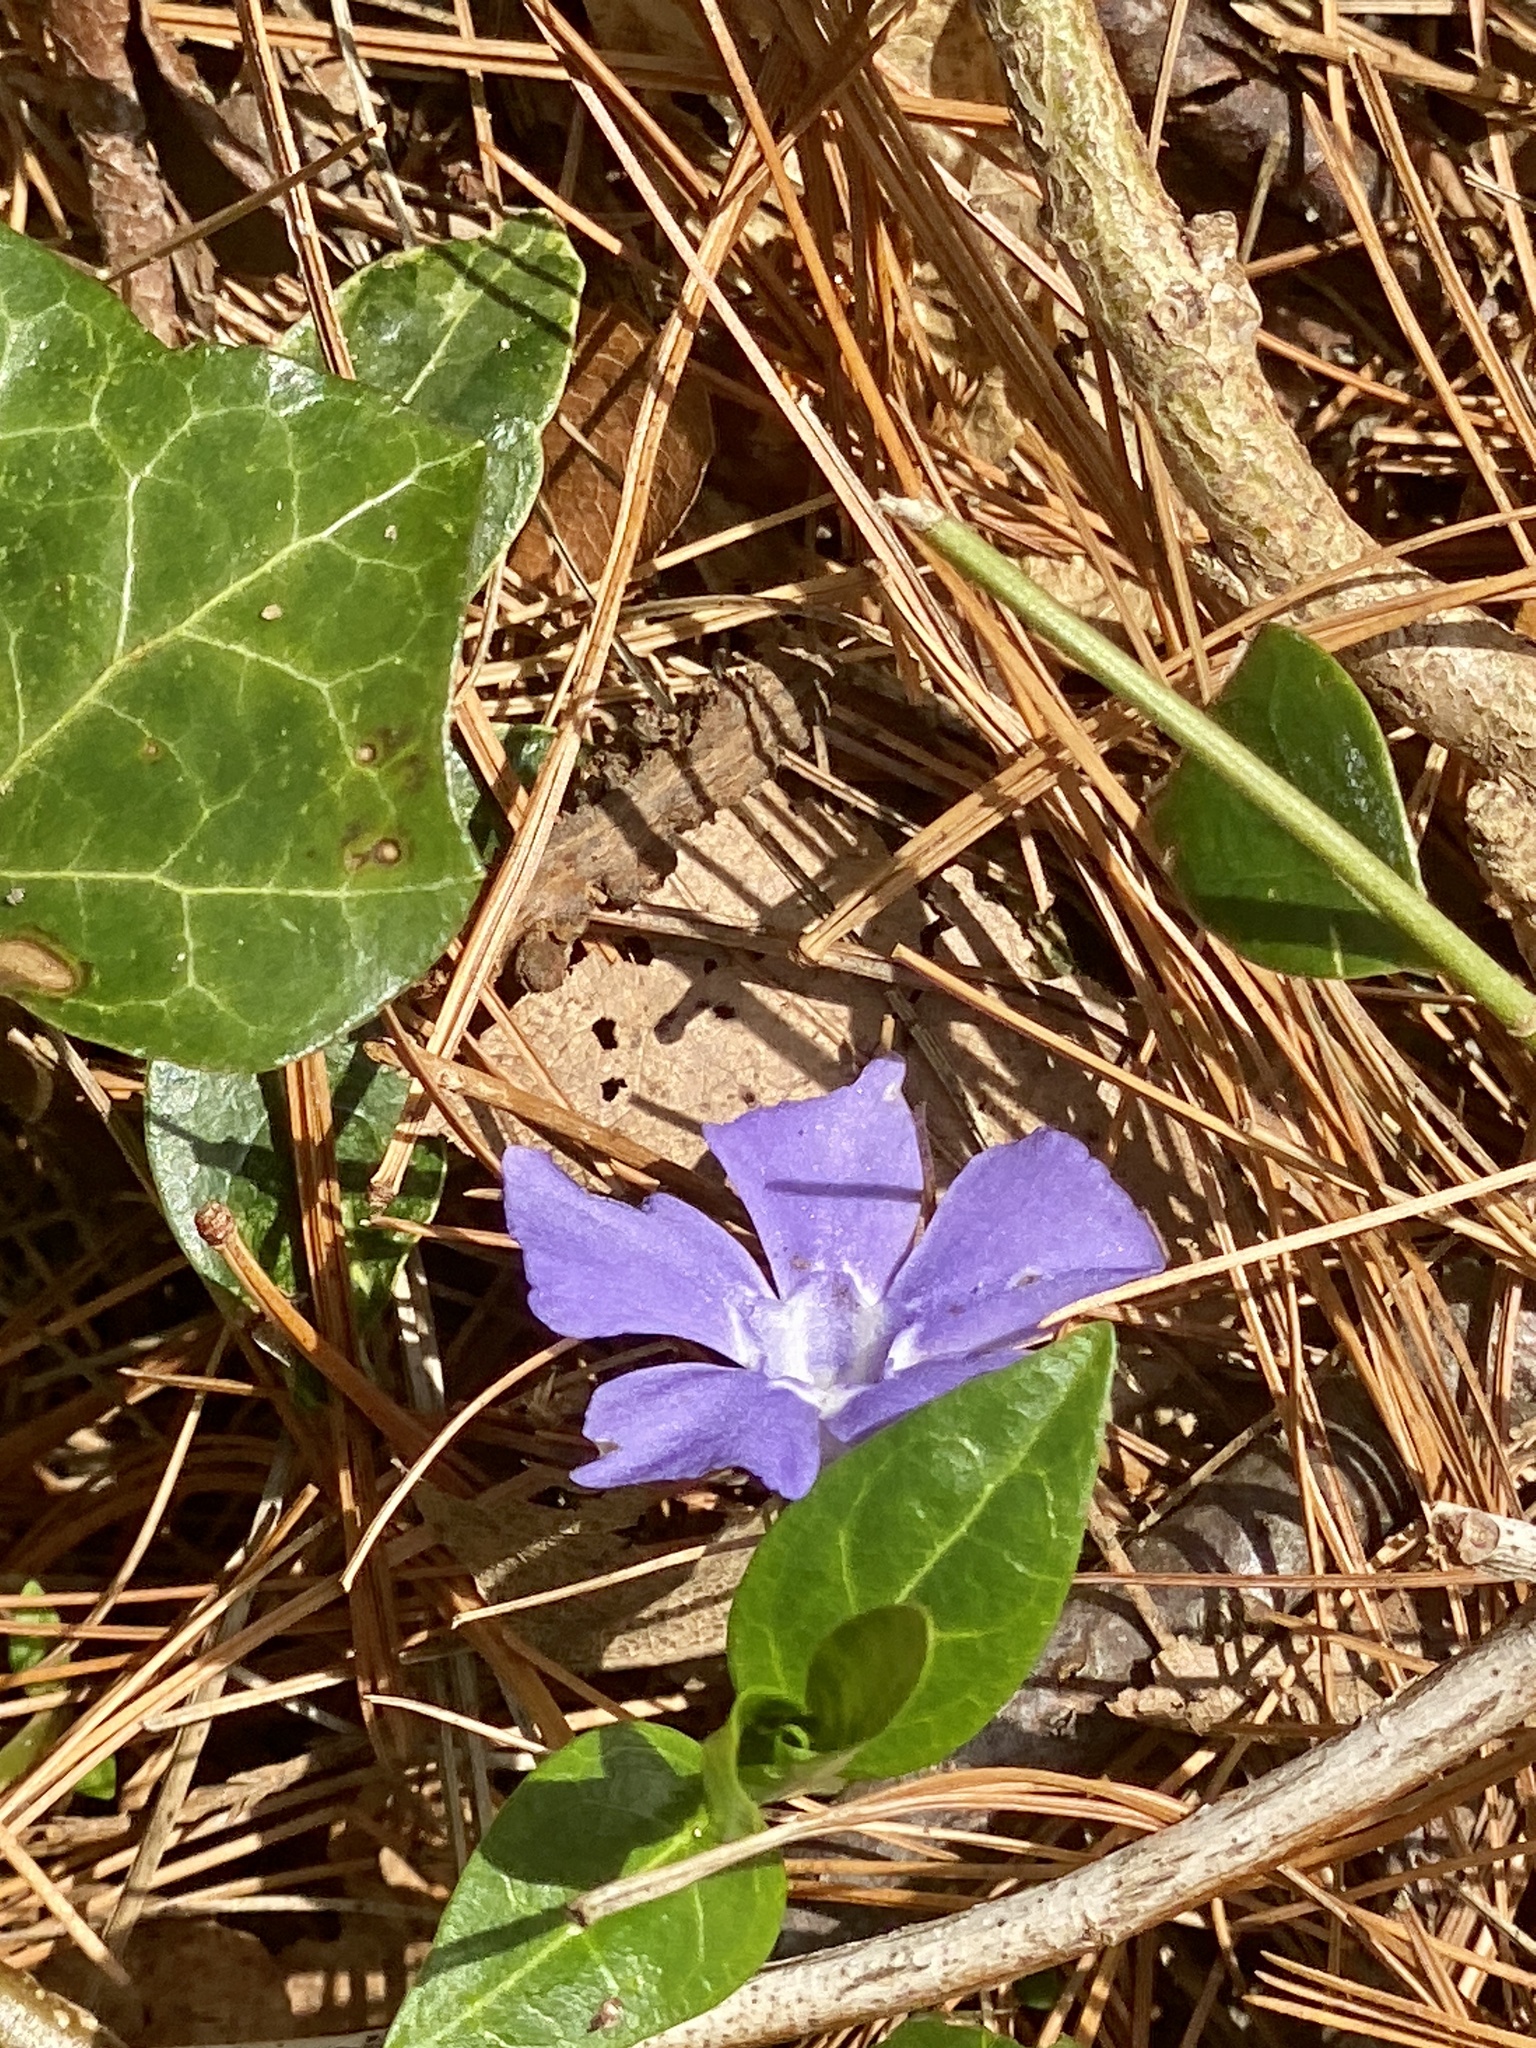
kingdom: Plantae
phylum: Tracheophyta
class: Magnoliopsida
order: Gentianales
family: Apocynaceae
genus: Vinca
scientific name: Vinca minor
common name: Lesser periwinkle
